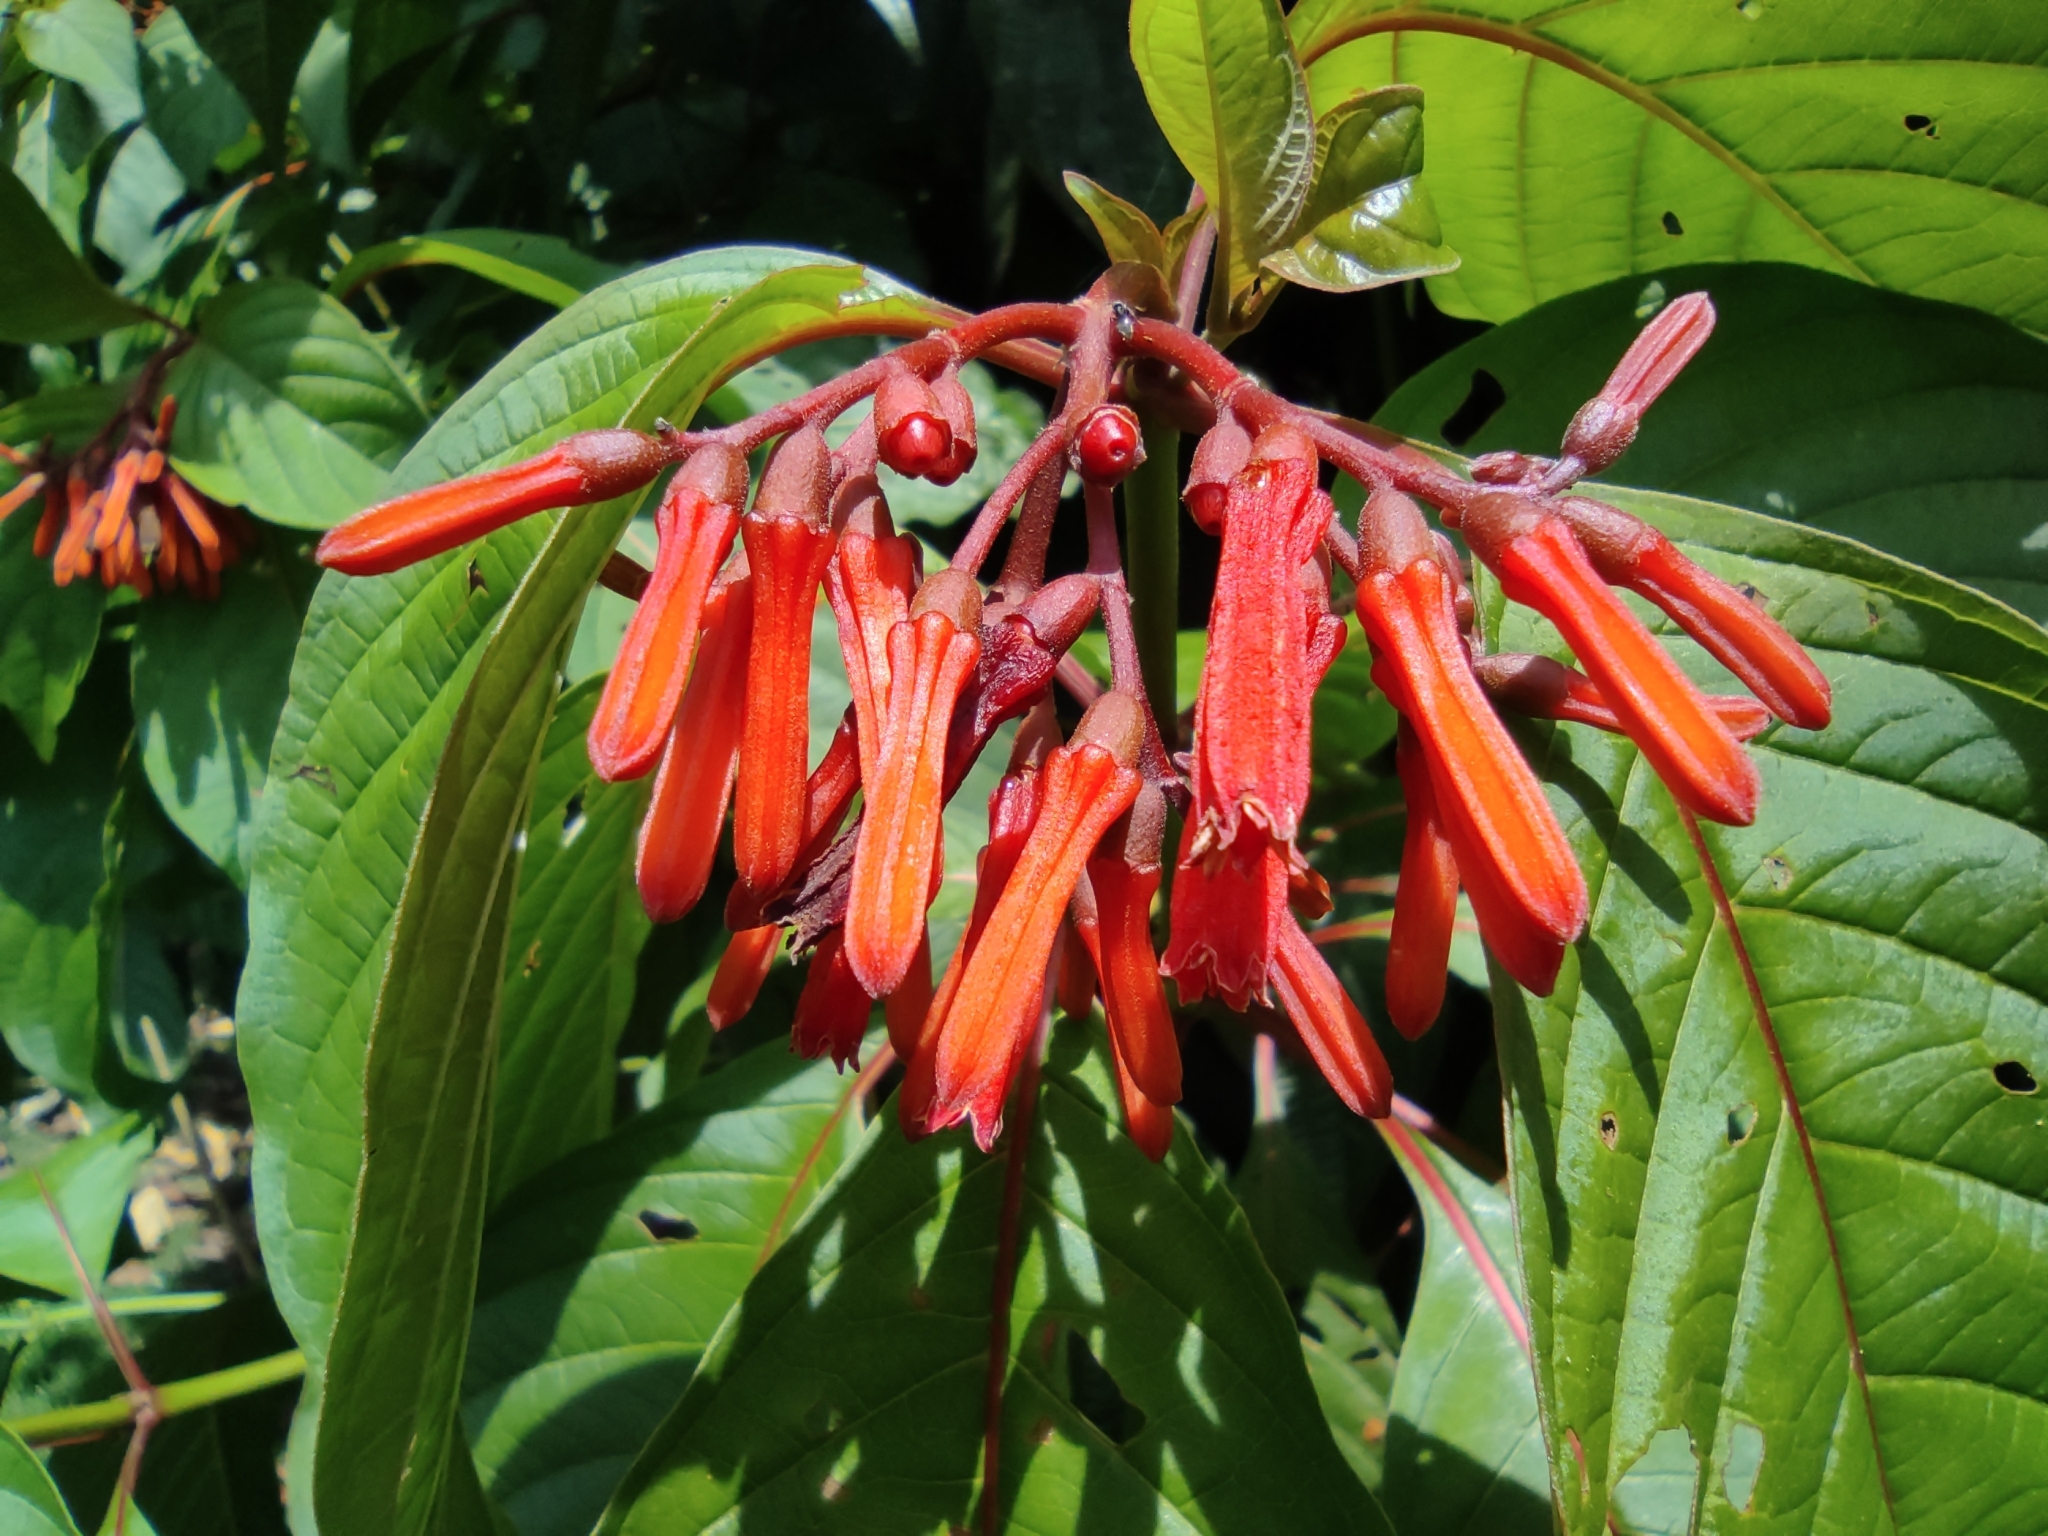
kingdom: Plantae
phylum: Tracheophyta
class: Magnoliopsida
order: Gentianales
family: Rubiaceae
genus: Hamelia
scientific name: Hamelia patens
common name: Redhead
